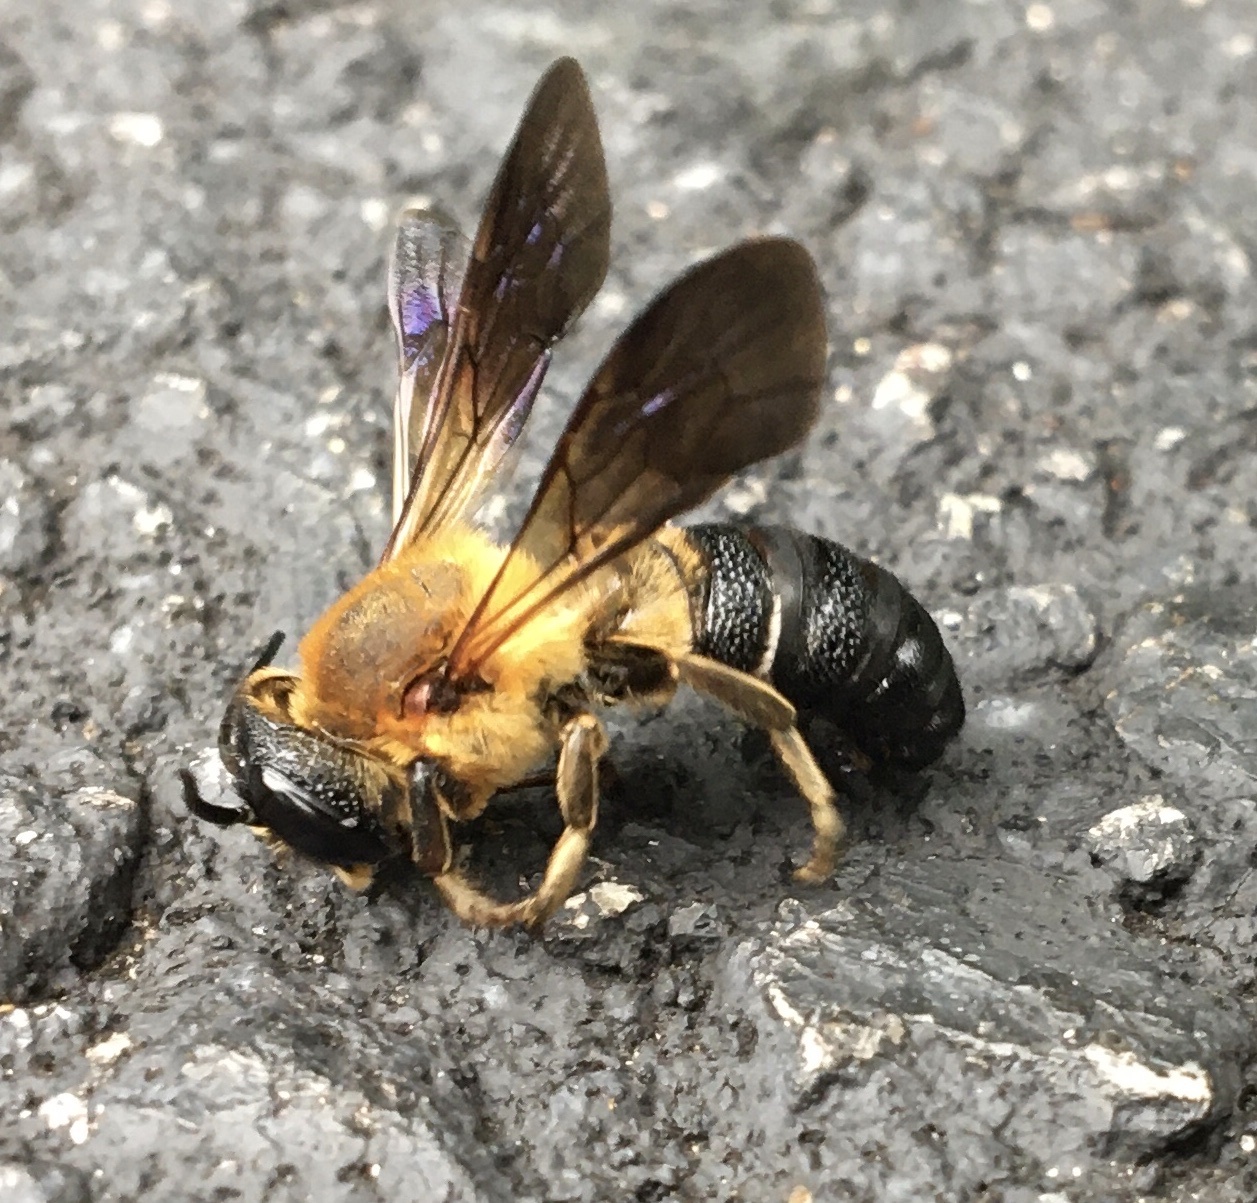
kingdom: Animalia
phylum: Arthropoda
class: Insecta
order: Hymenoptera
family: Megachilidae
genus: Megachile
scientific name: Megachile sculpturalis
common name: Sculptured resin bee
